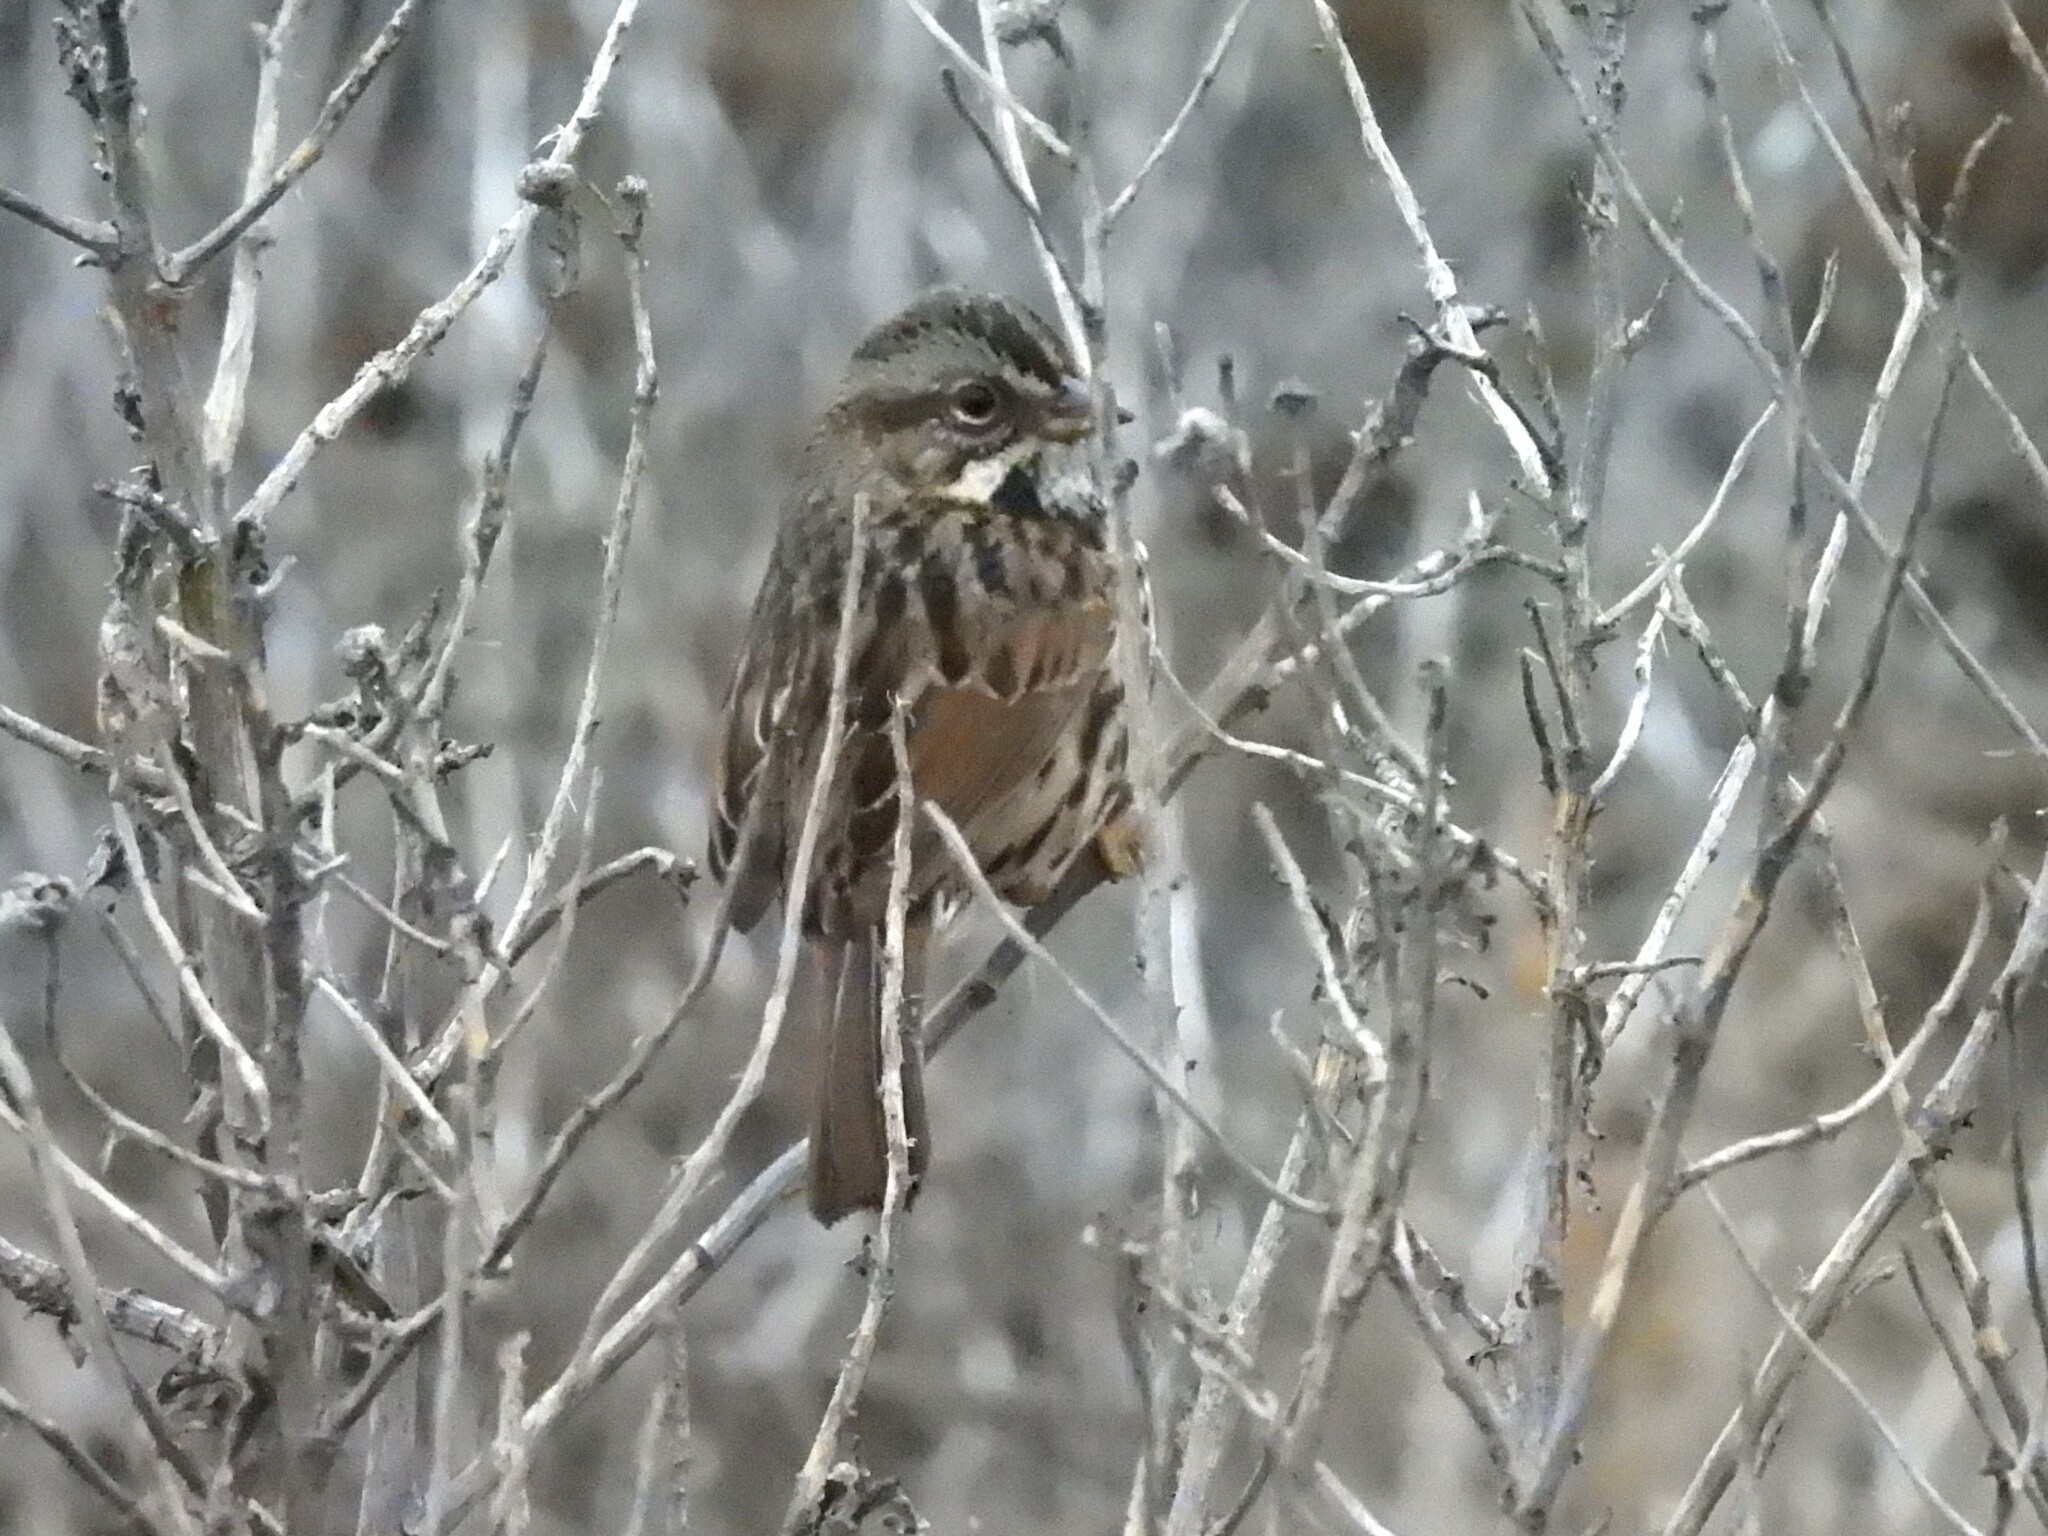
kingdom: Animalia
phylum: Chordata
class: Aves
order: Passeriformes
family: Passerellidae
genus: Melospiza
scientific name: Melospiza melodia
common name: Song sparrow
